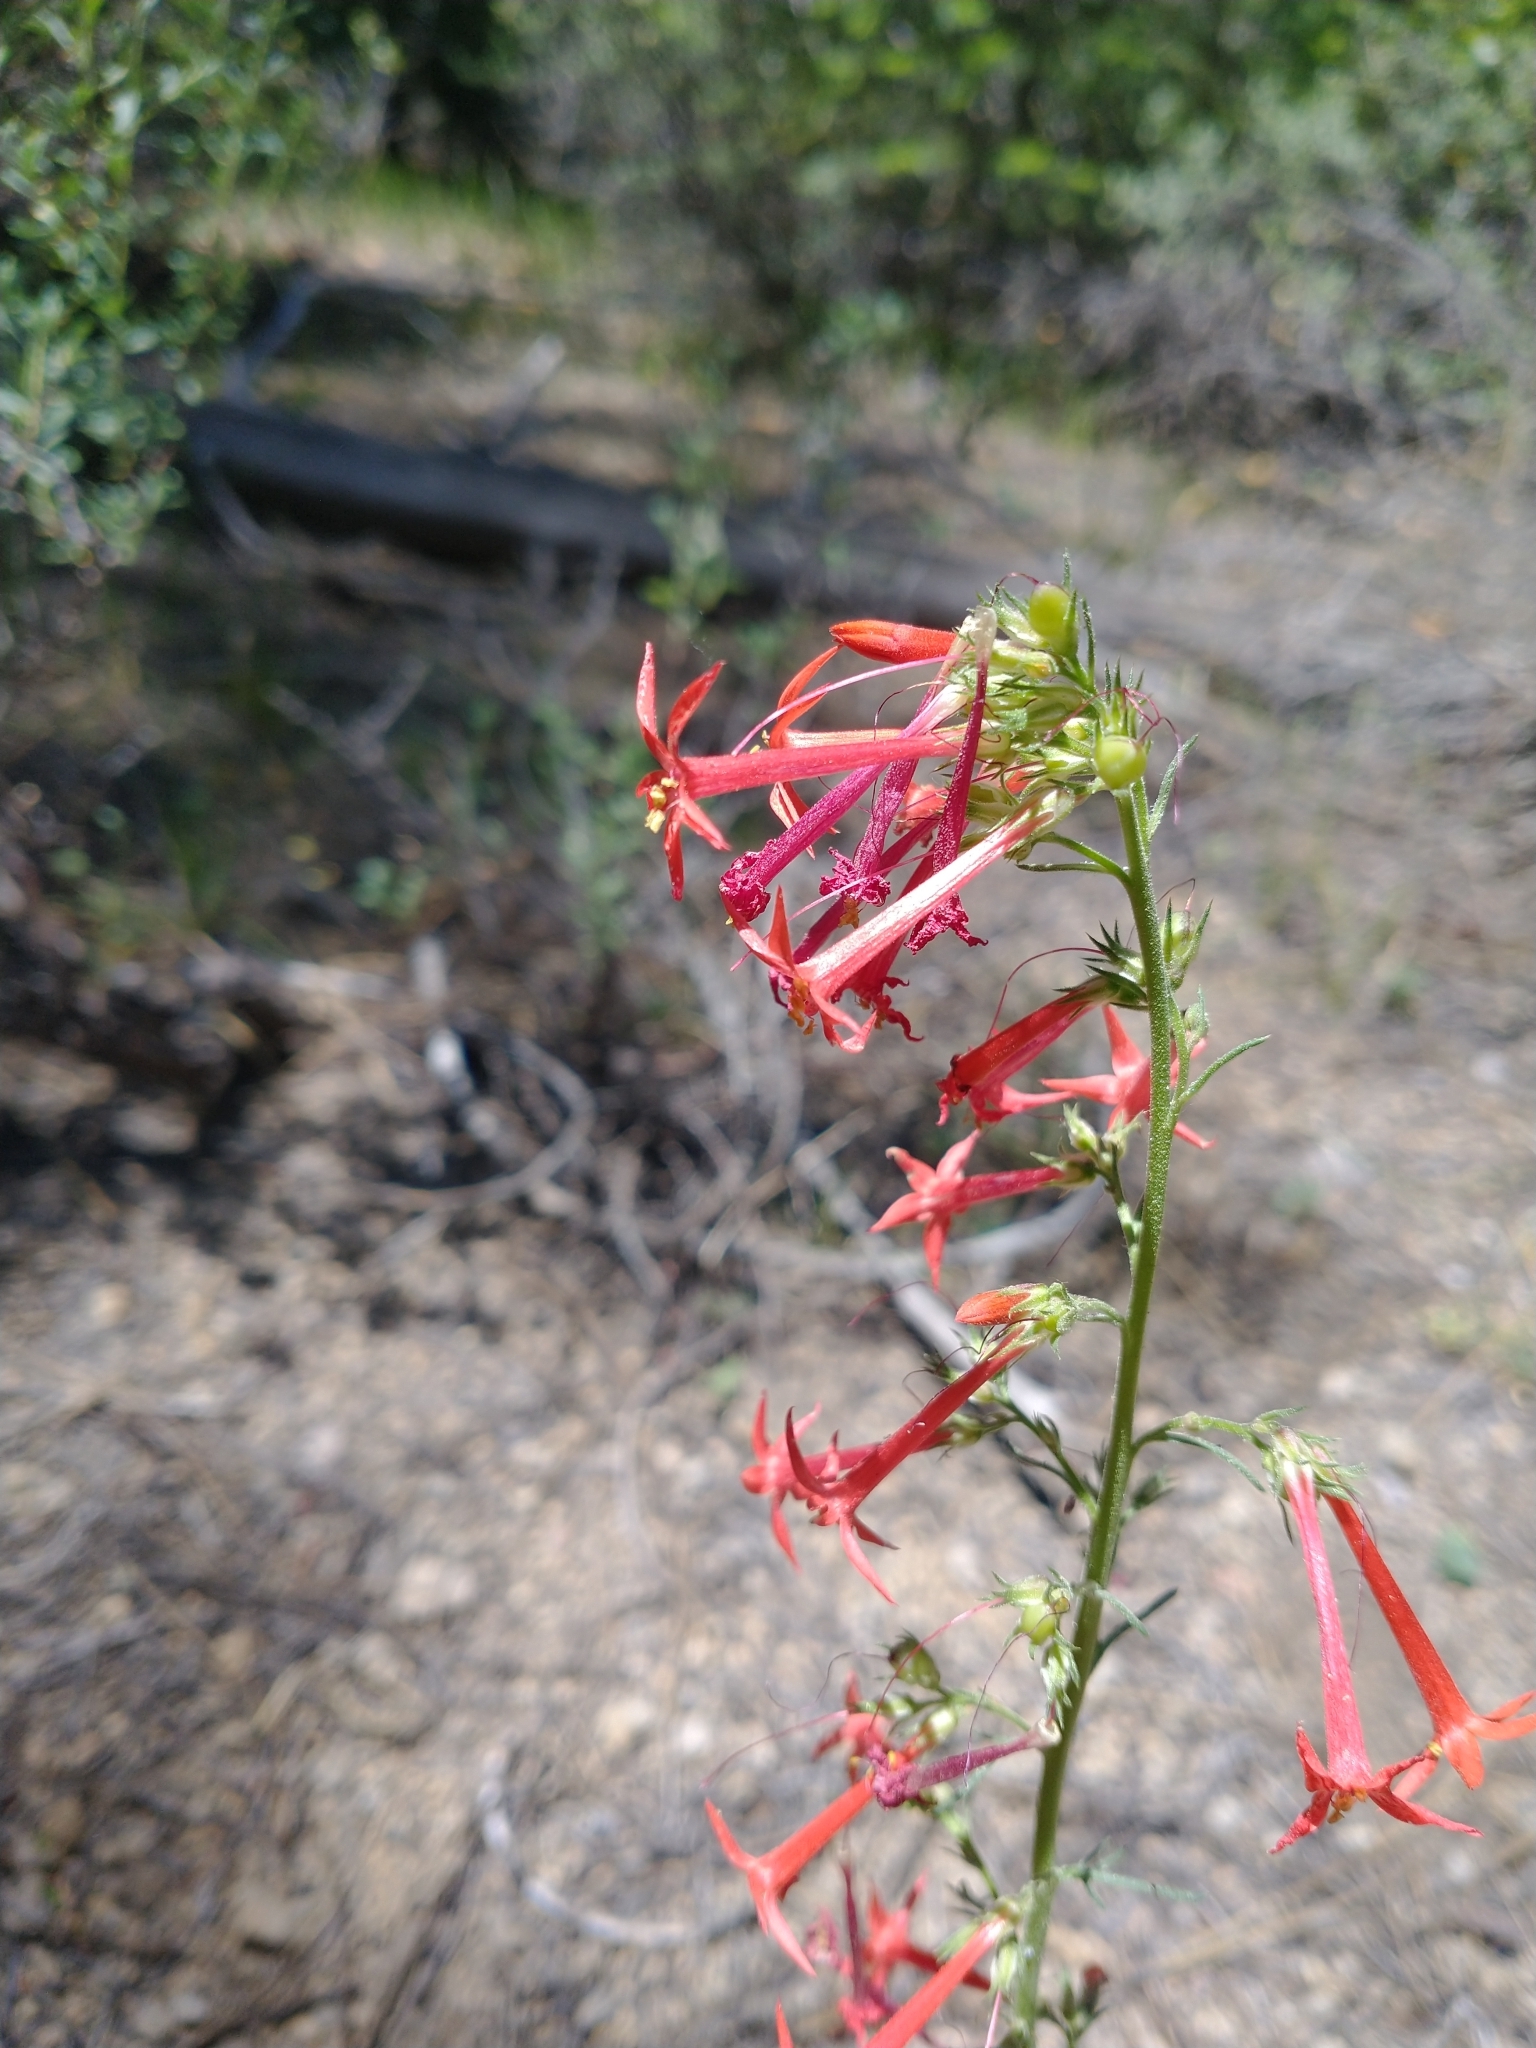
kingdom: Plantae
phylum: Tracheophyta
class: Magnoliopsida
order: Ericales
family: Polemoniaceae
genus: Ipomopsis
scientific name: Ipomopsis aggregata
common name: Scarlet gilia
